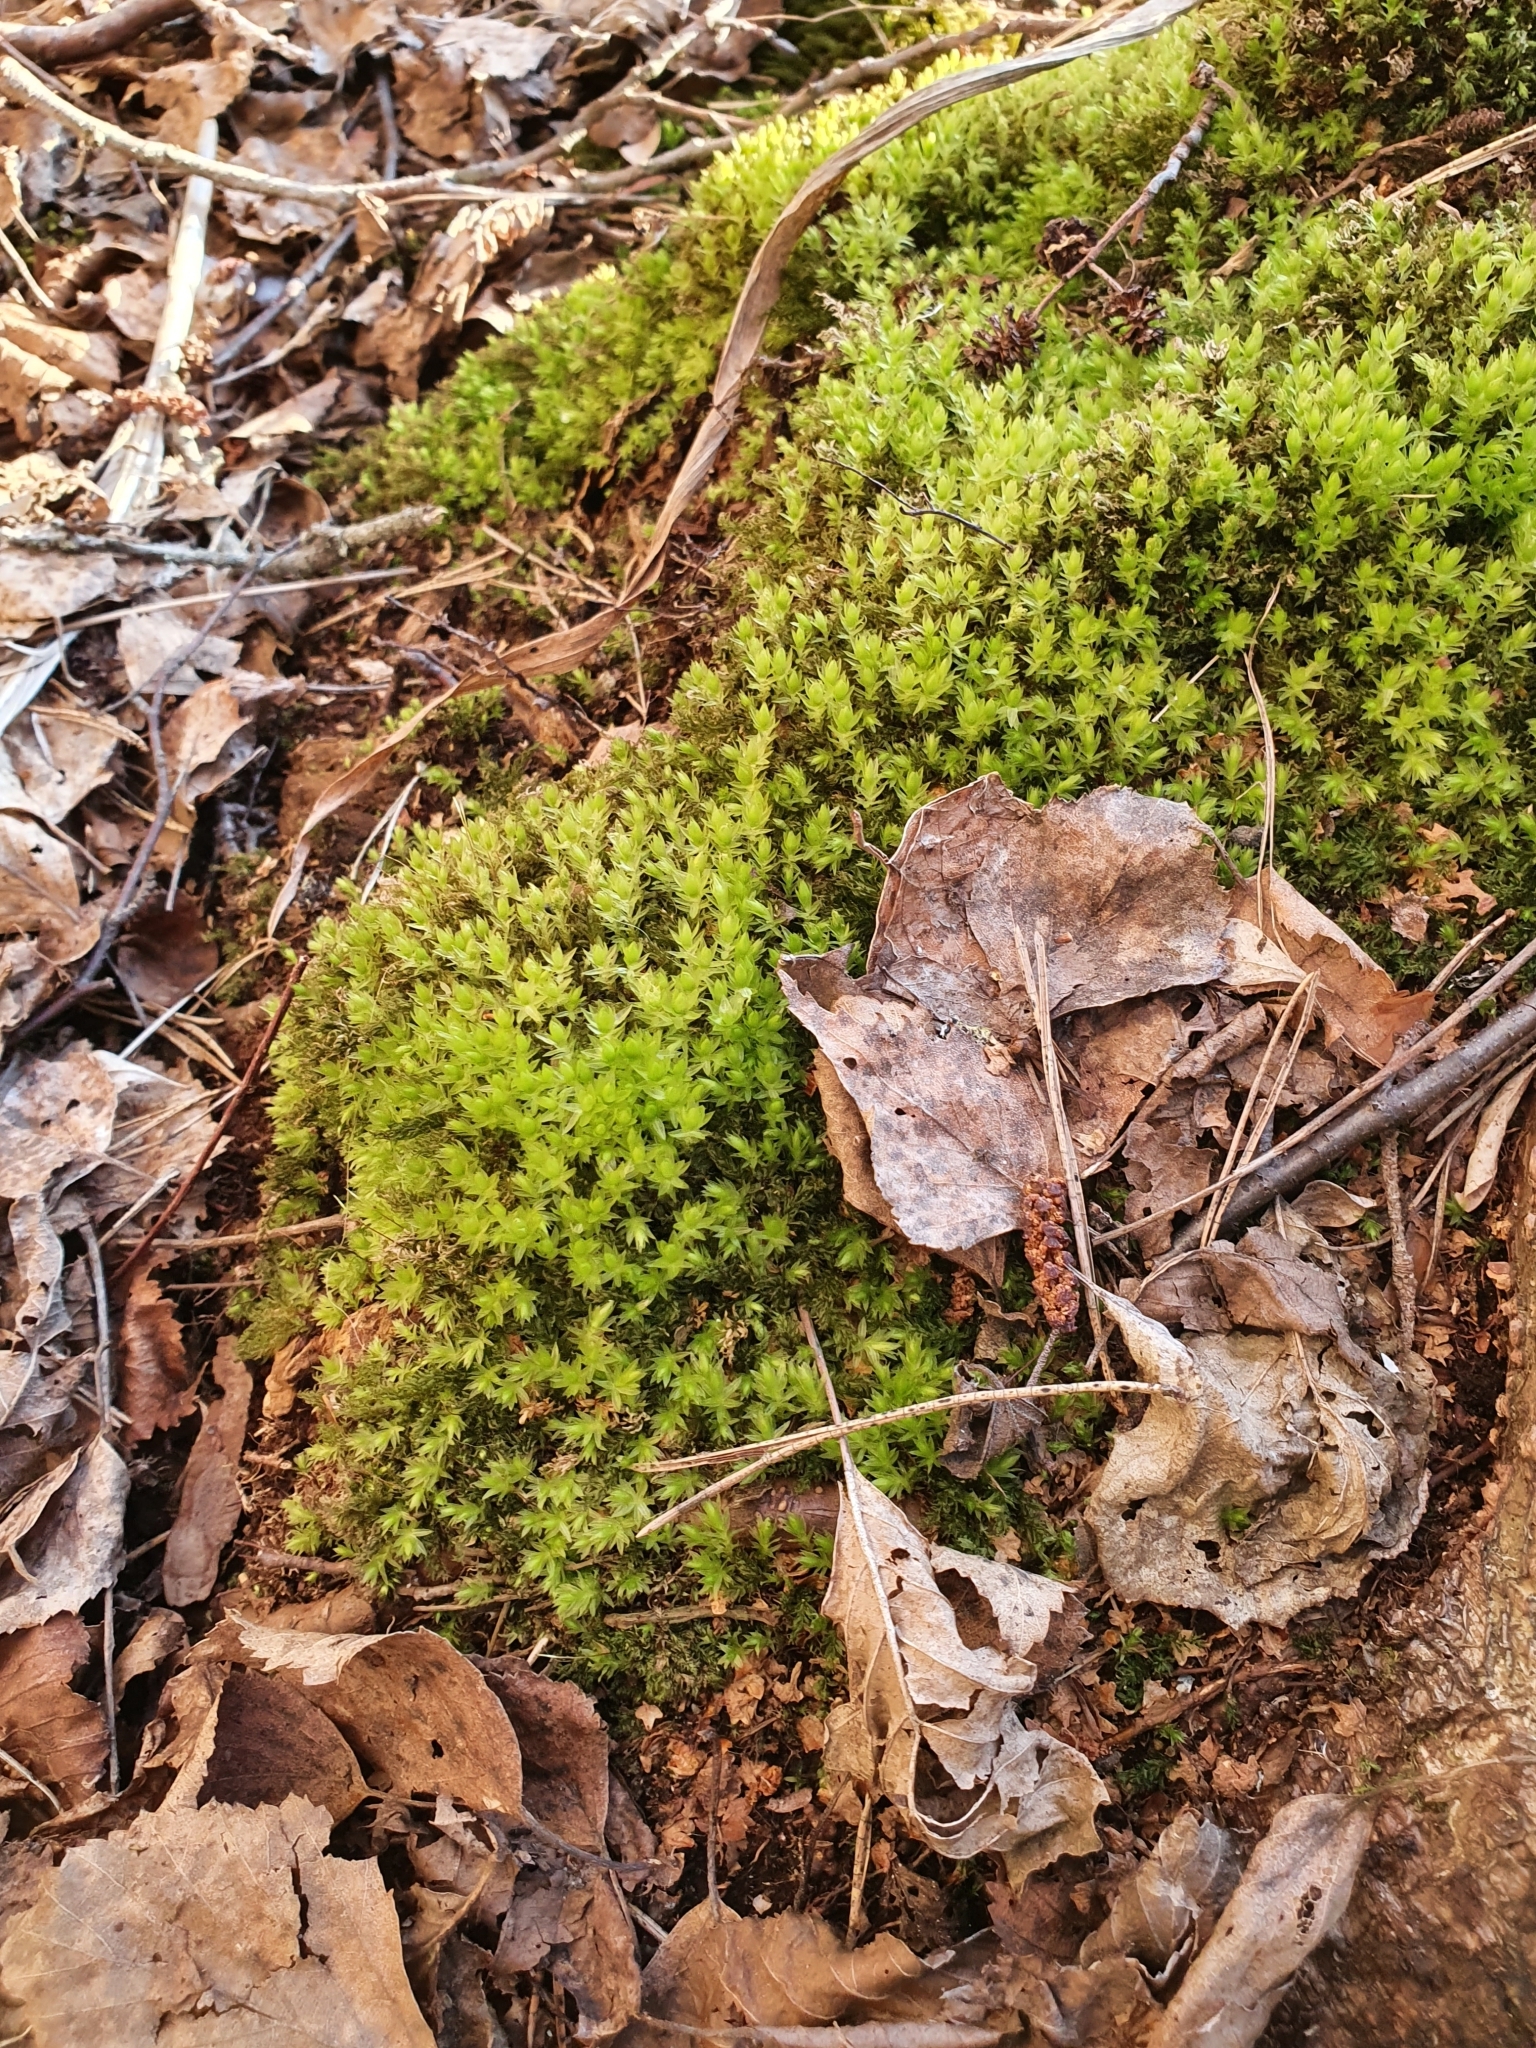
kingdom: Plantae
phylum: Bryophyta
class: Bryopsida
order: Bryales
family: Mniaceae
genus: Mnium
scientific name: Mnium hornum
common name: Swan's-neck leafy moss
